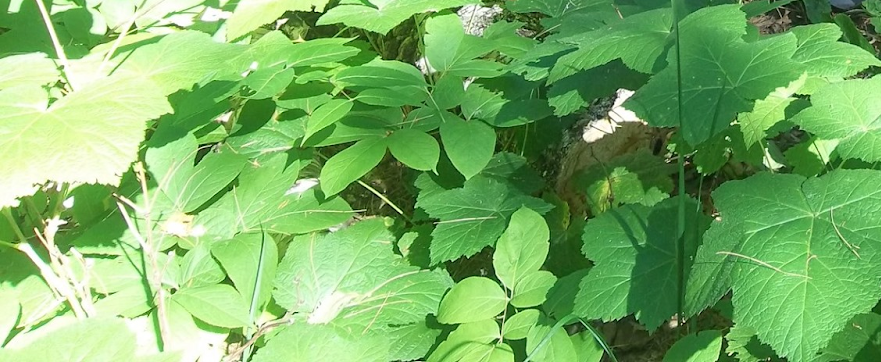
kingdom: Plantae
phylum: Tracheophyta
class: Magnoliopsida
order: Rosales
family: Rosaceae
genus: Rubus
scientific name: Rubus parviflorus
